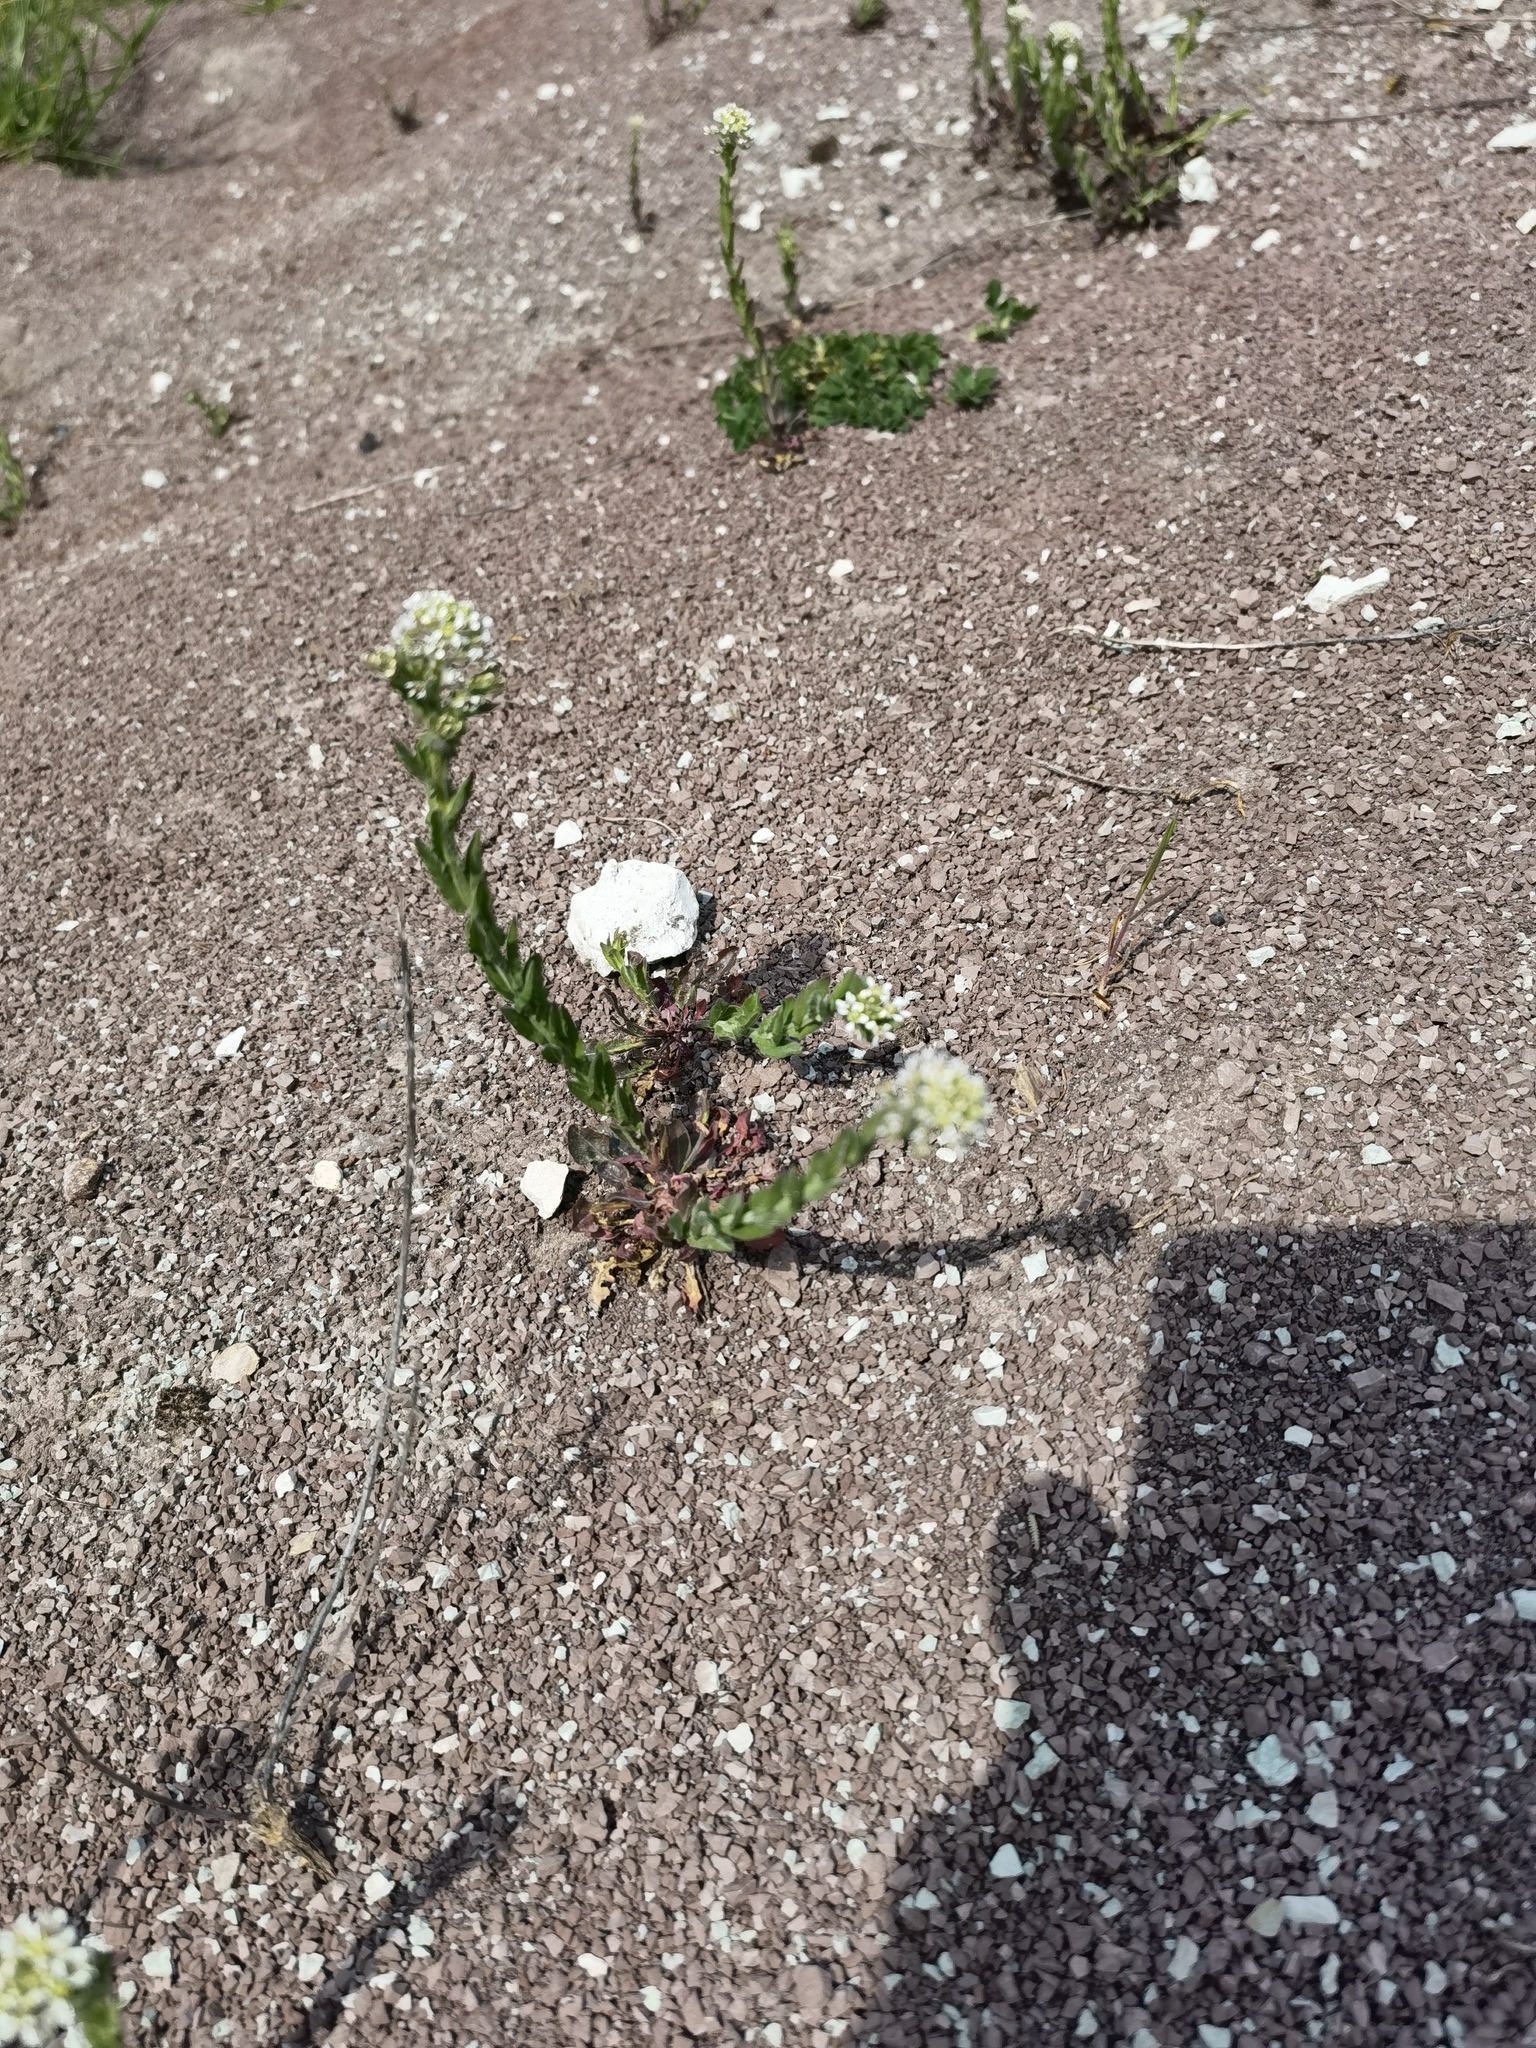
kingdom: Plantae
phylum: Tracheophyta
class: Magnoliopsida
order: Brassicales
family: Brassicaceae
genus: Lepidium
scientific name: Lepidium campestre
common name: Field pepperwort
